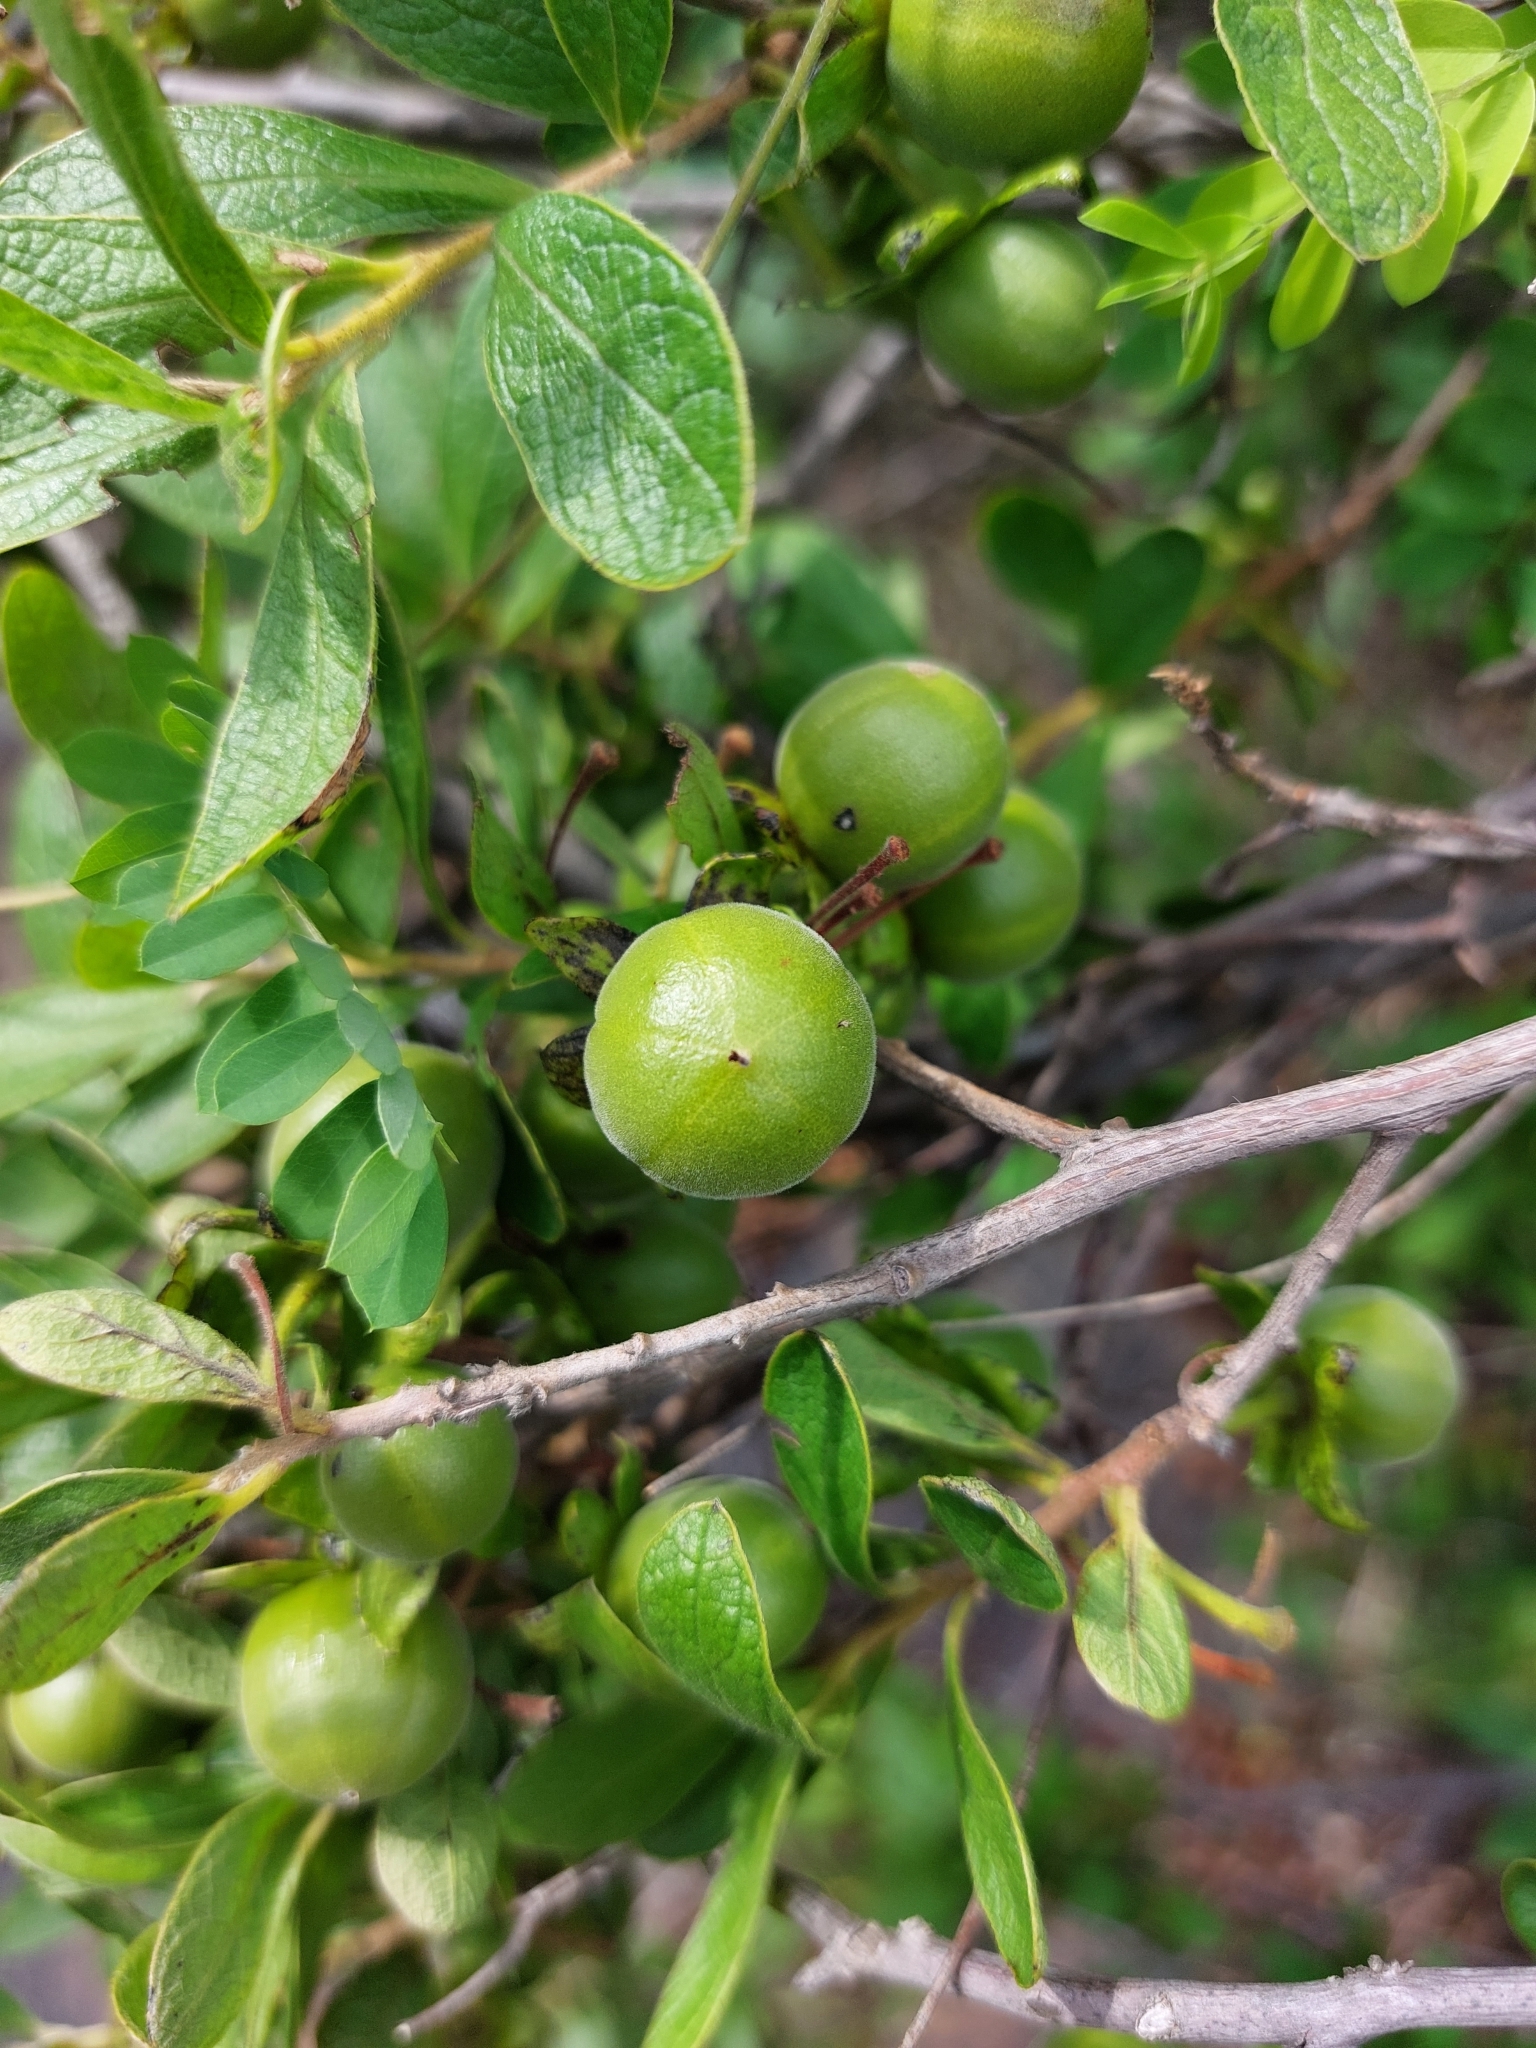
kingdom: Plantae
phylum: Tracheophyta
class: Magnoliopsida
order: Ericales
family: Ebenaceae
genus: Diospyros
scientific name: Diospyros lycioides
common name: Red star apple
